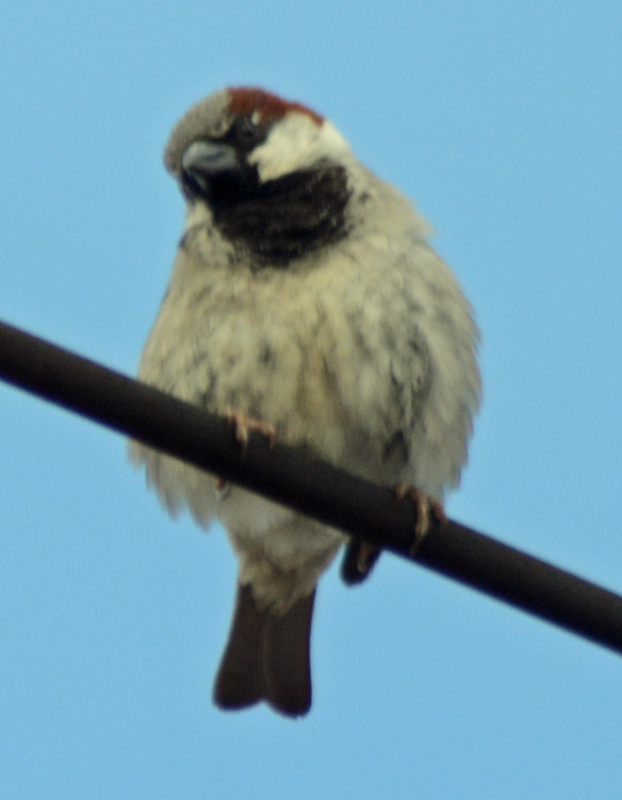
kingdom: Animalia
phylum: Chordata
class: Aves
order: Passeriformes
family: Passeridae
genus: Passer
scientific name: Passer domesticus
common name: House sparrow
